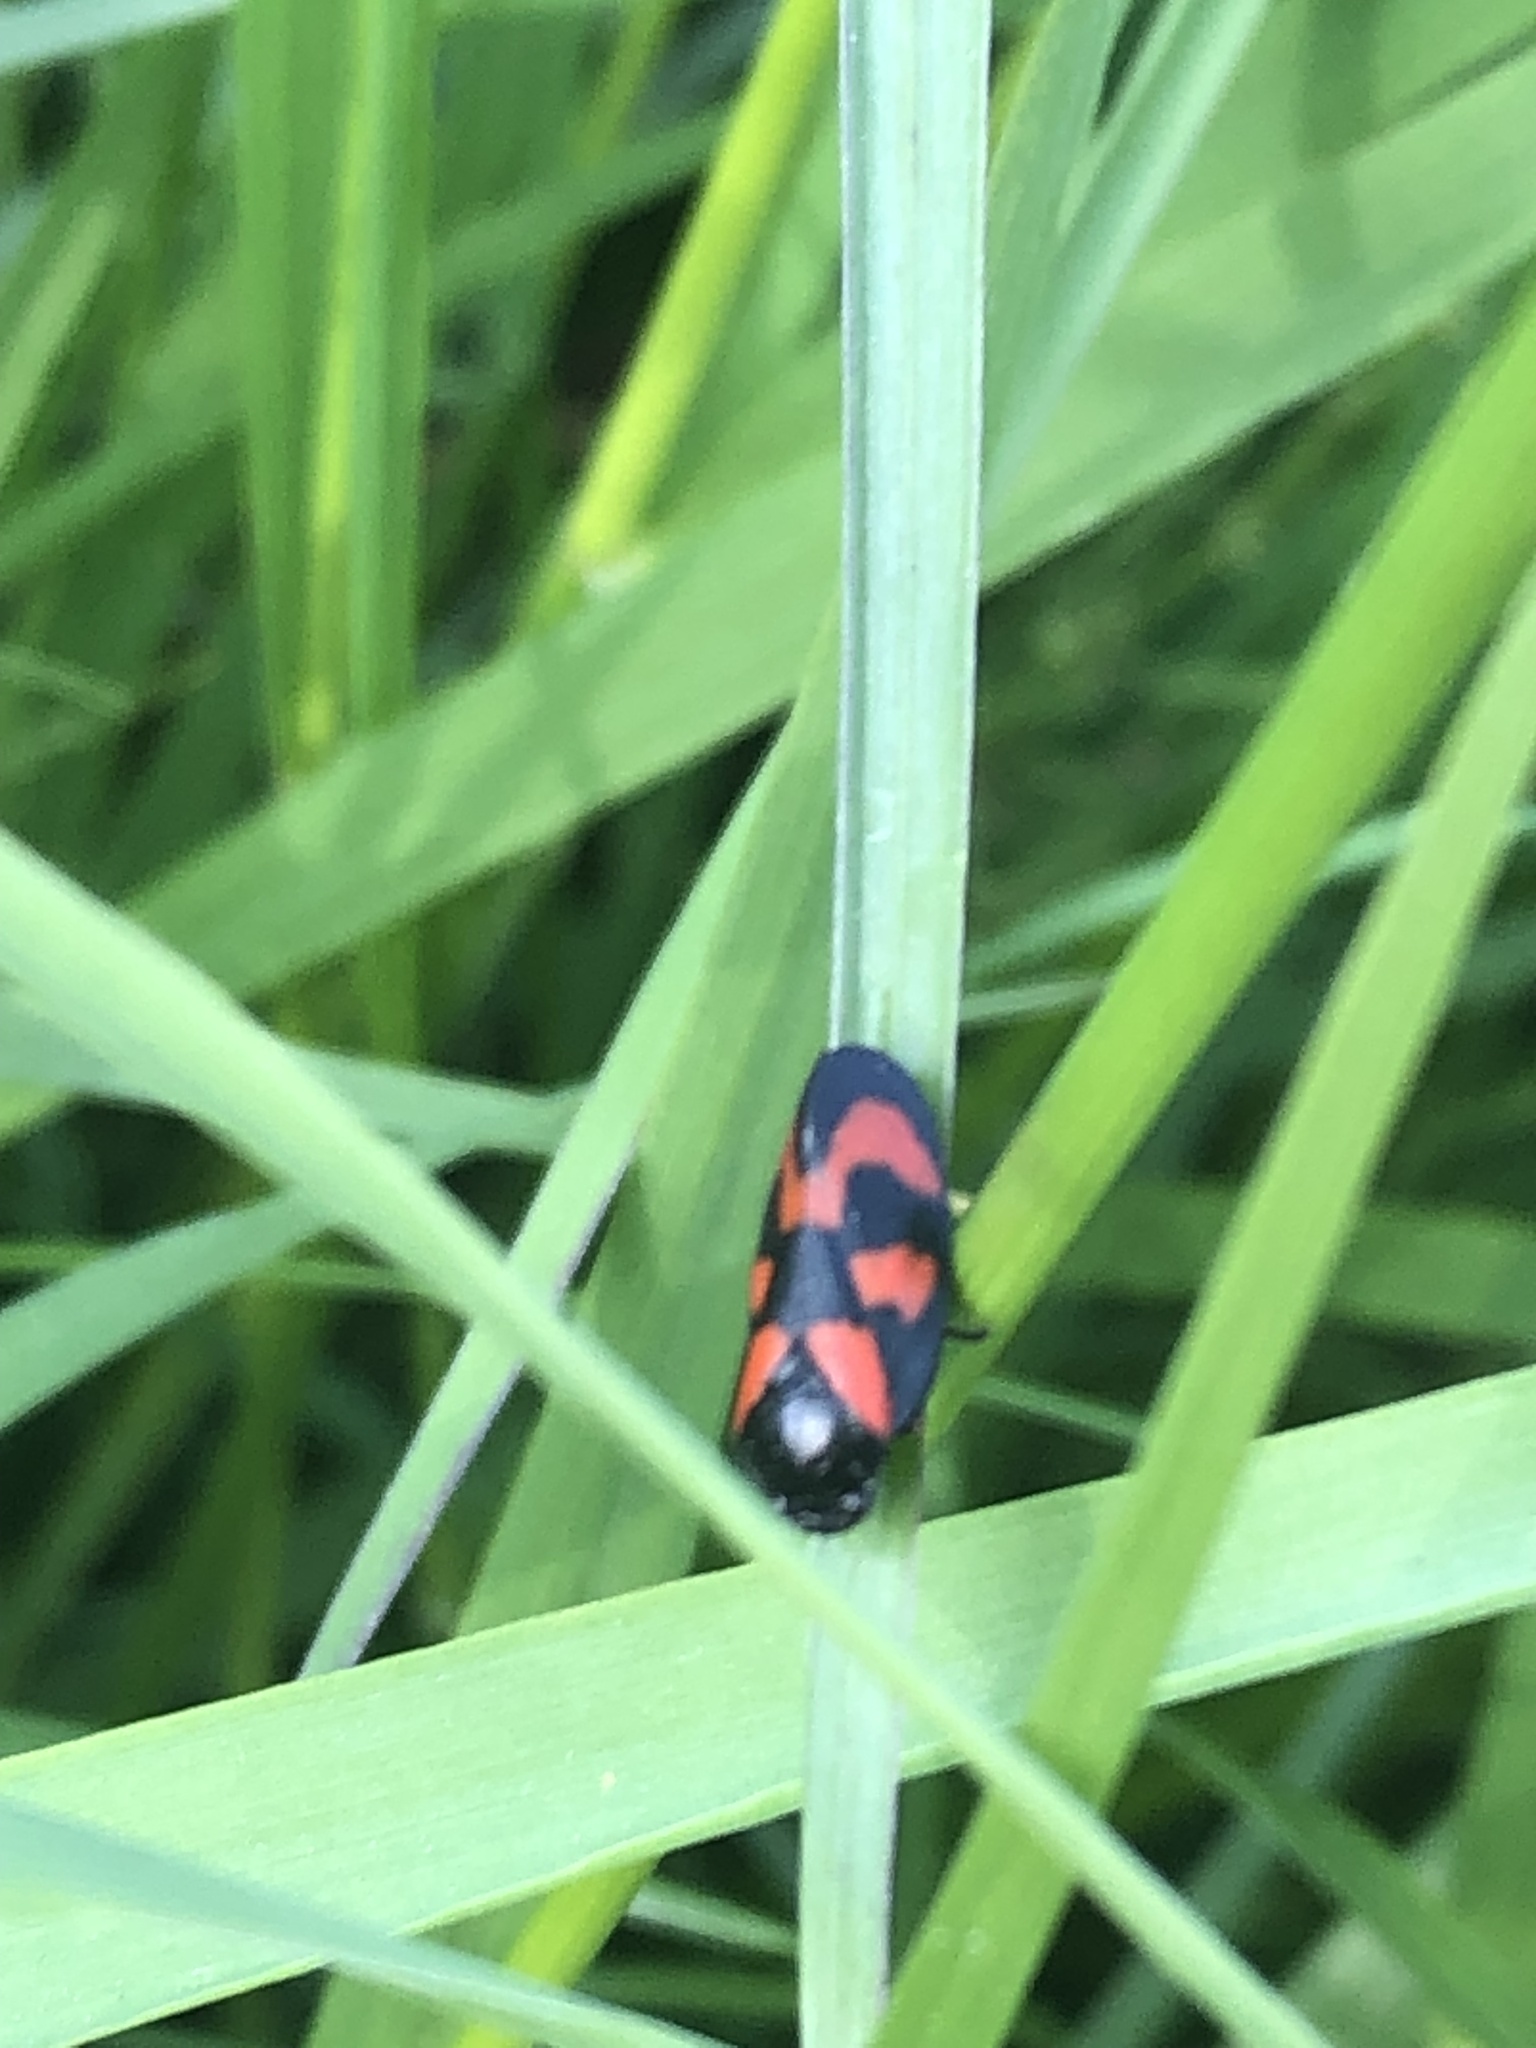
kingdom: Animalia
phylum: Arthropoda
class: Insecta
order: Hemiptera
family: Cercopidae
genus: Cercopis
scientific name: Cercopis vulnerata
